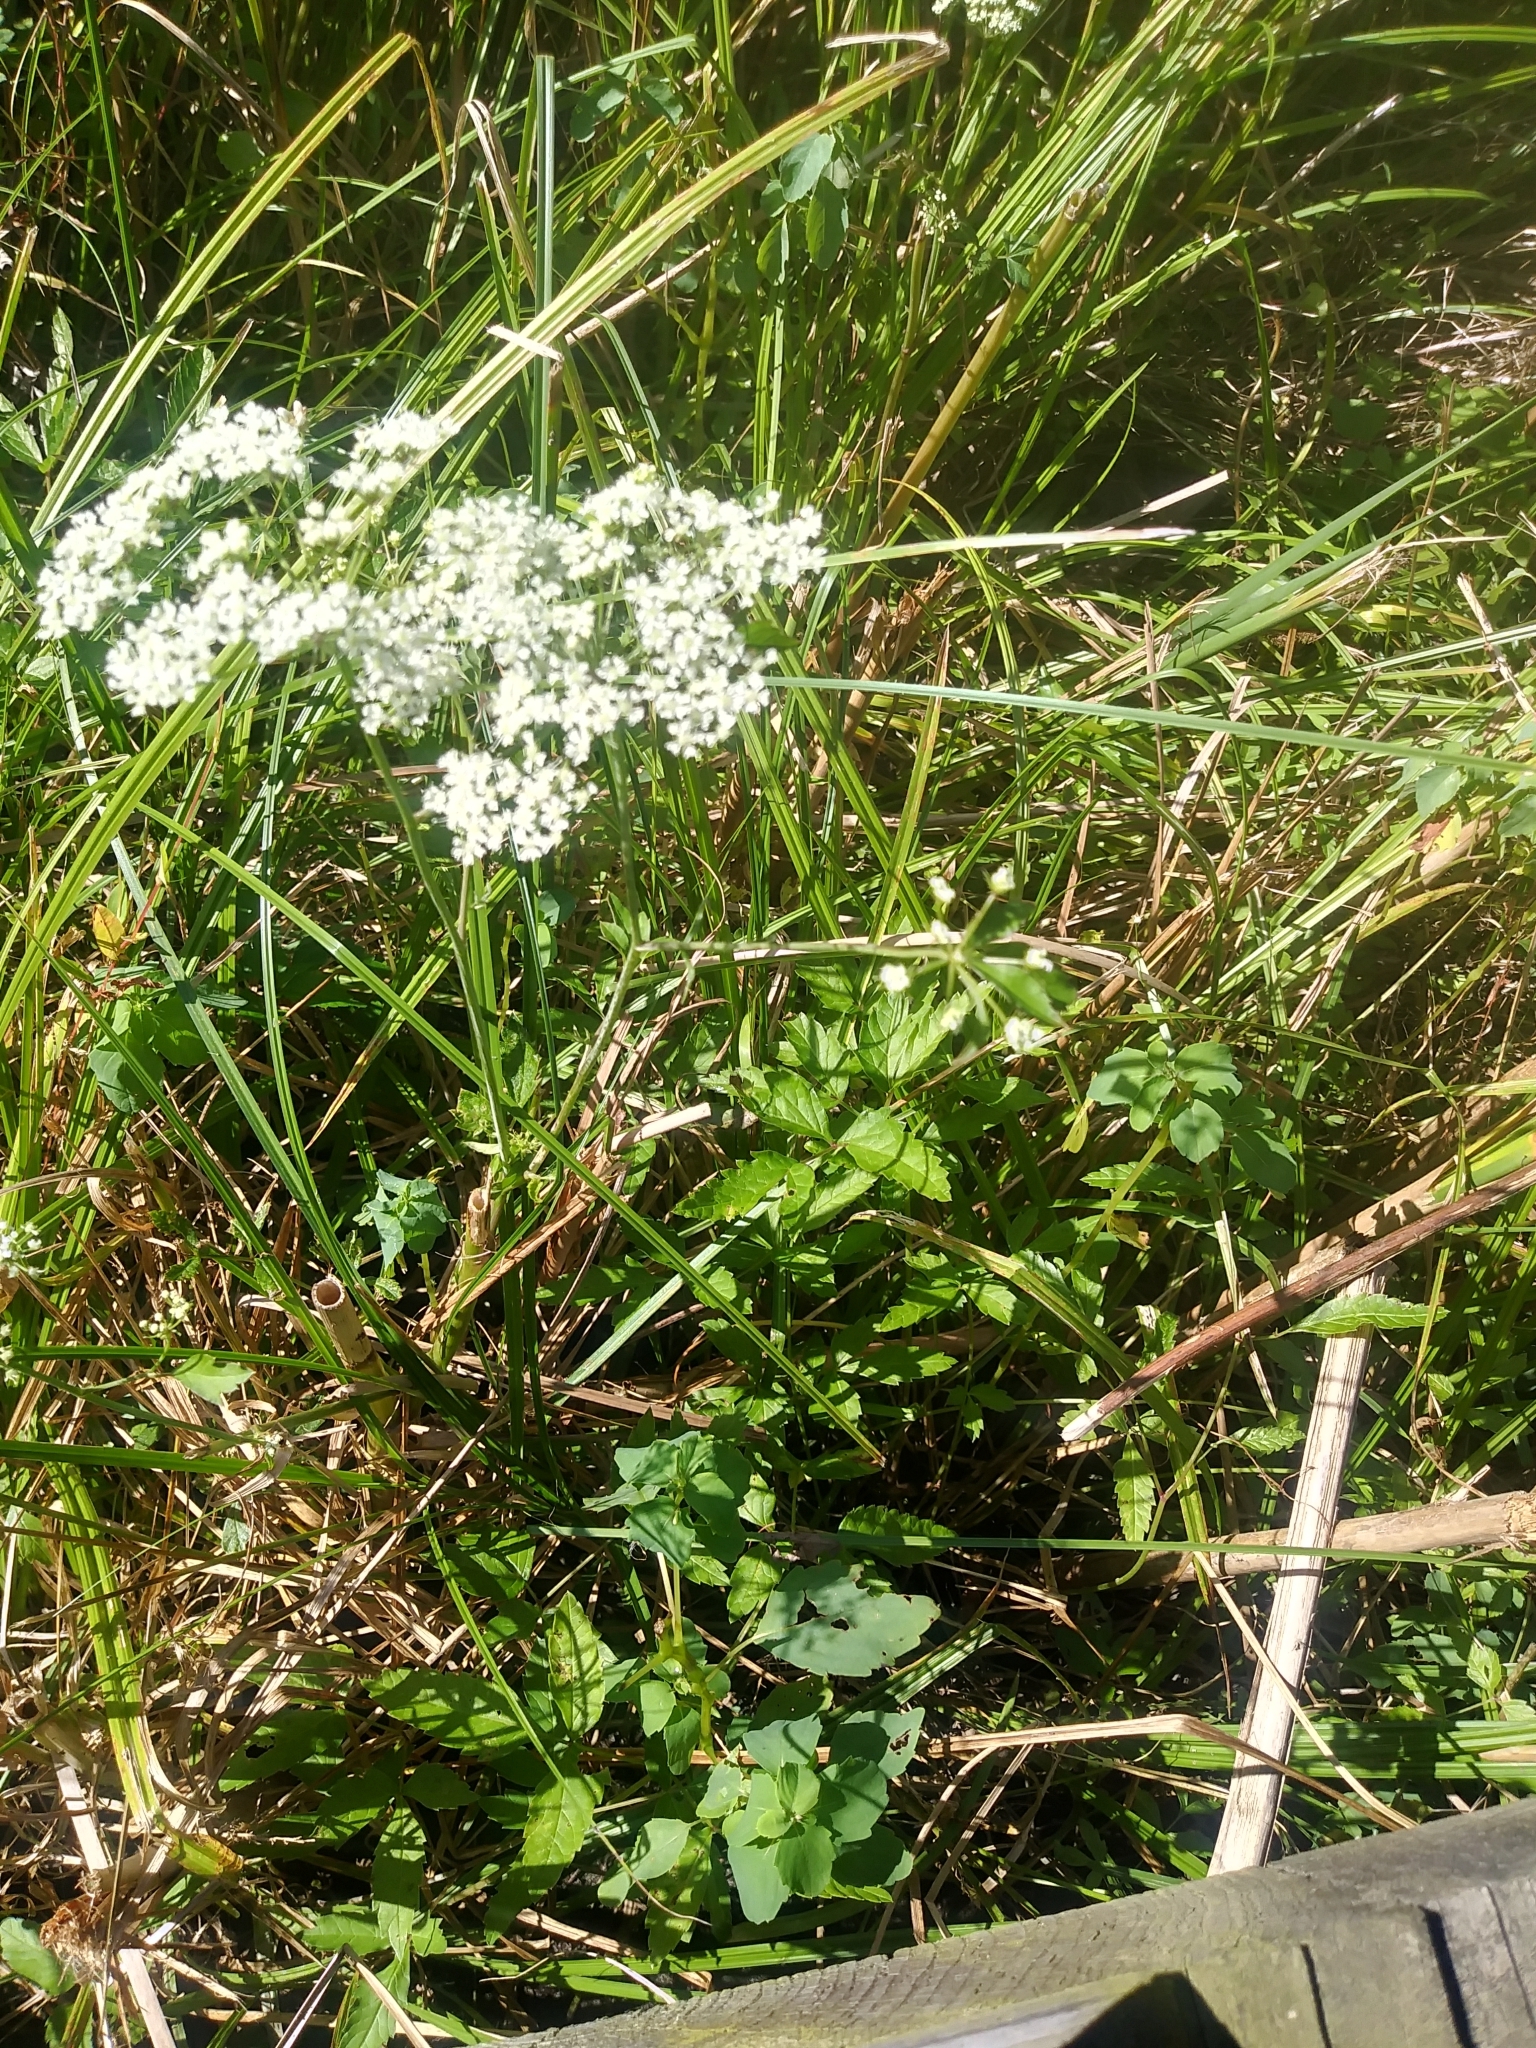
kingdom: Plantae
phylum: Tracheophyta
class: Magnoliopsida
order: Apiales
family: Apiaceae
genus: Cicuta
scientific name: Cicuta maculata
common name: Spotted cowbane
